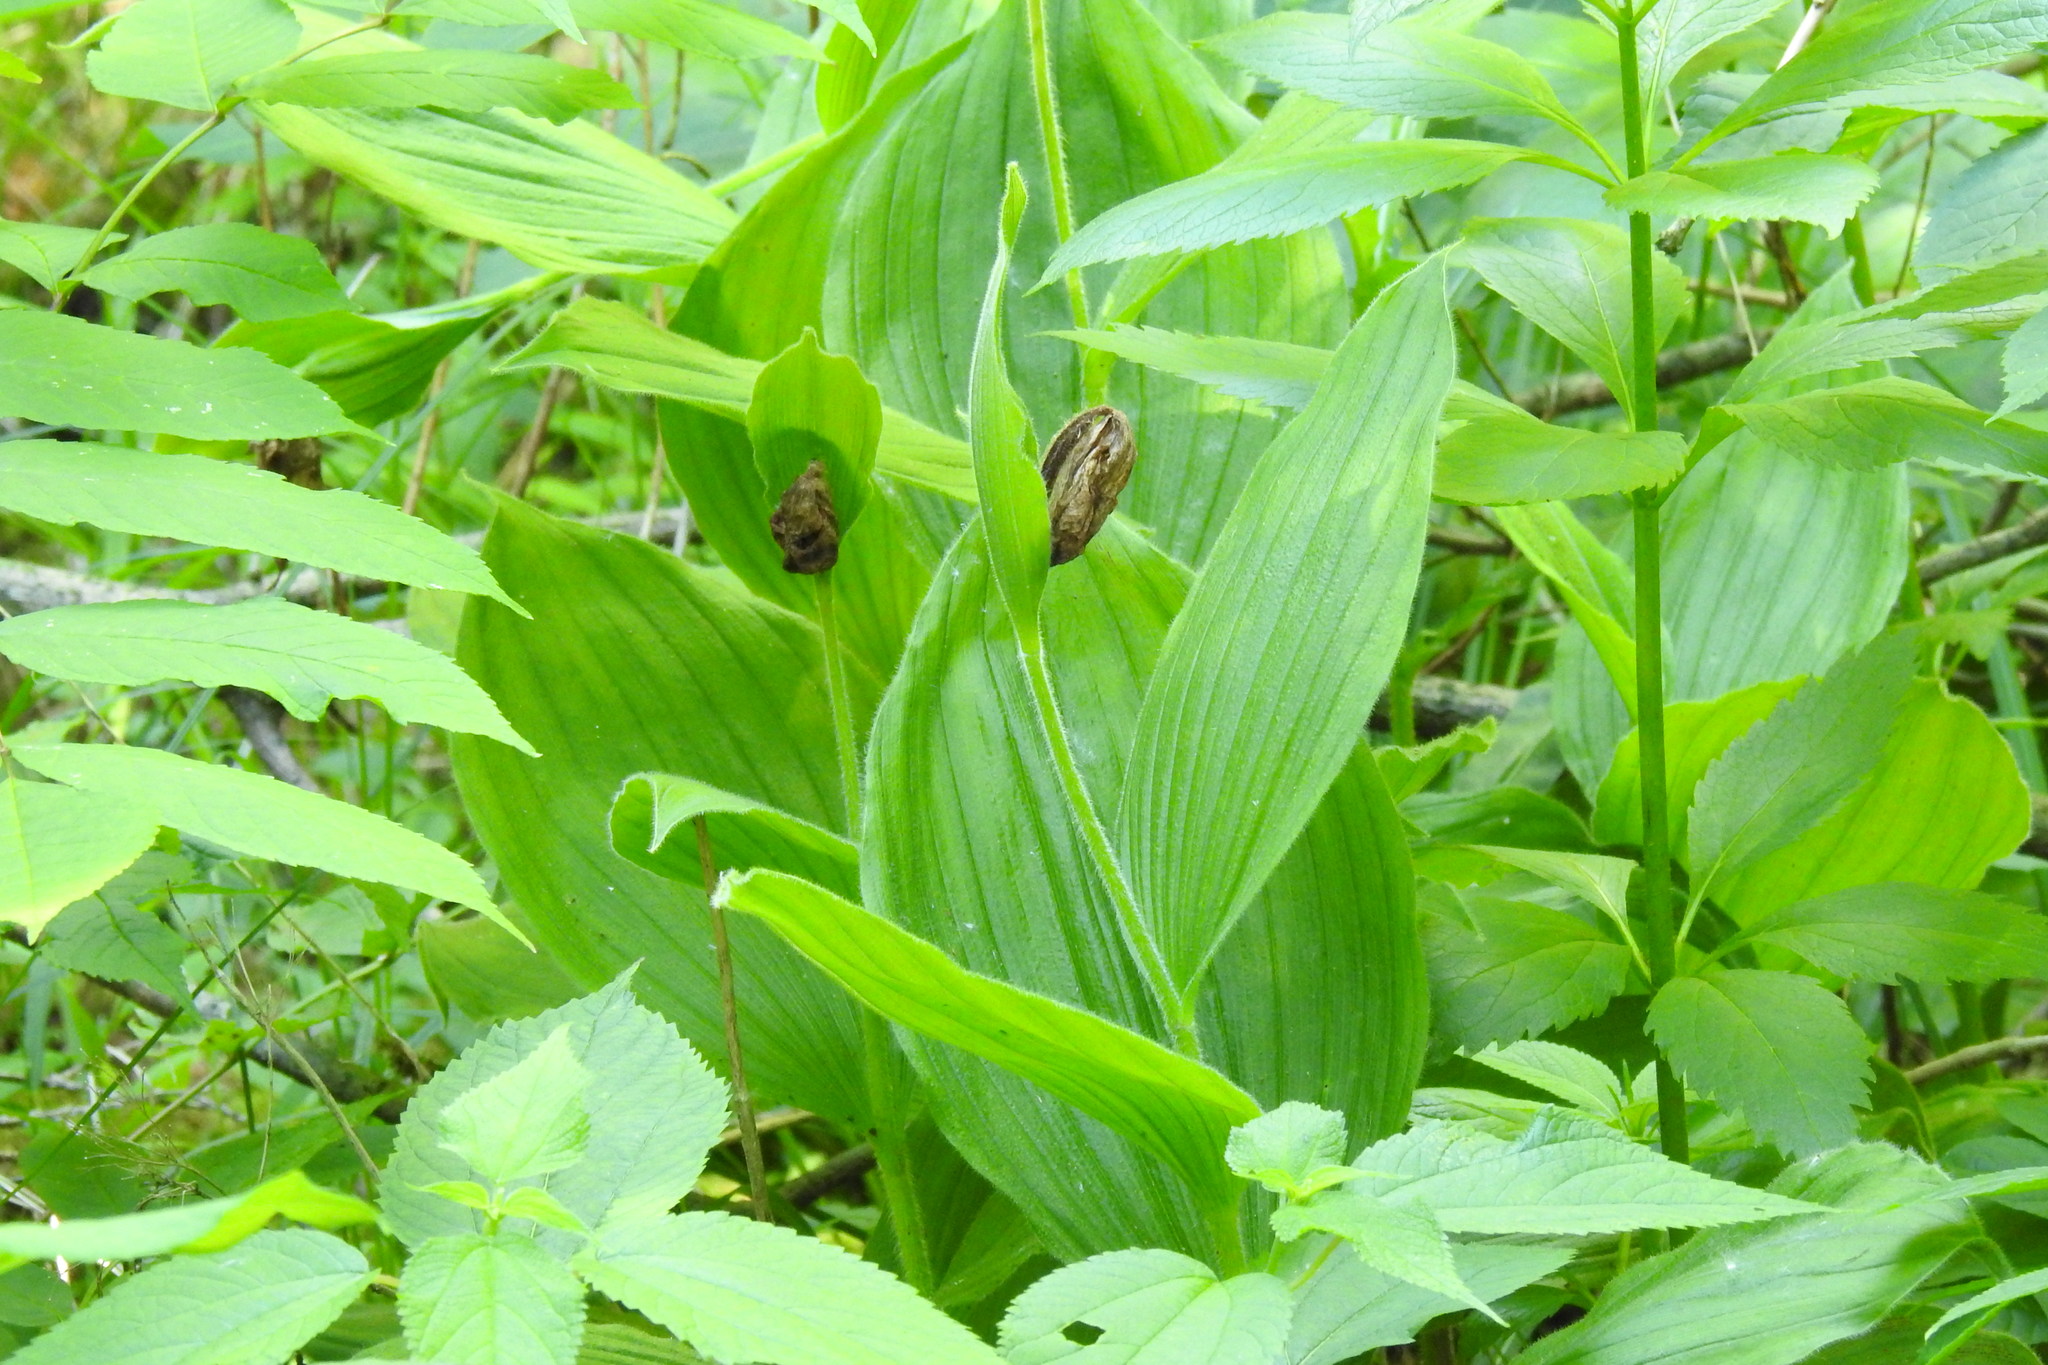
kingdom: Plantae
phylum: Tracheophyta
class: Liliopsida
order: Asparagales
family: Orchidaceae
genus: Cypripedium
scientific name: Cypripedium reginae
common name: Queen lady's-slipper
